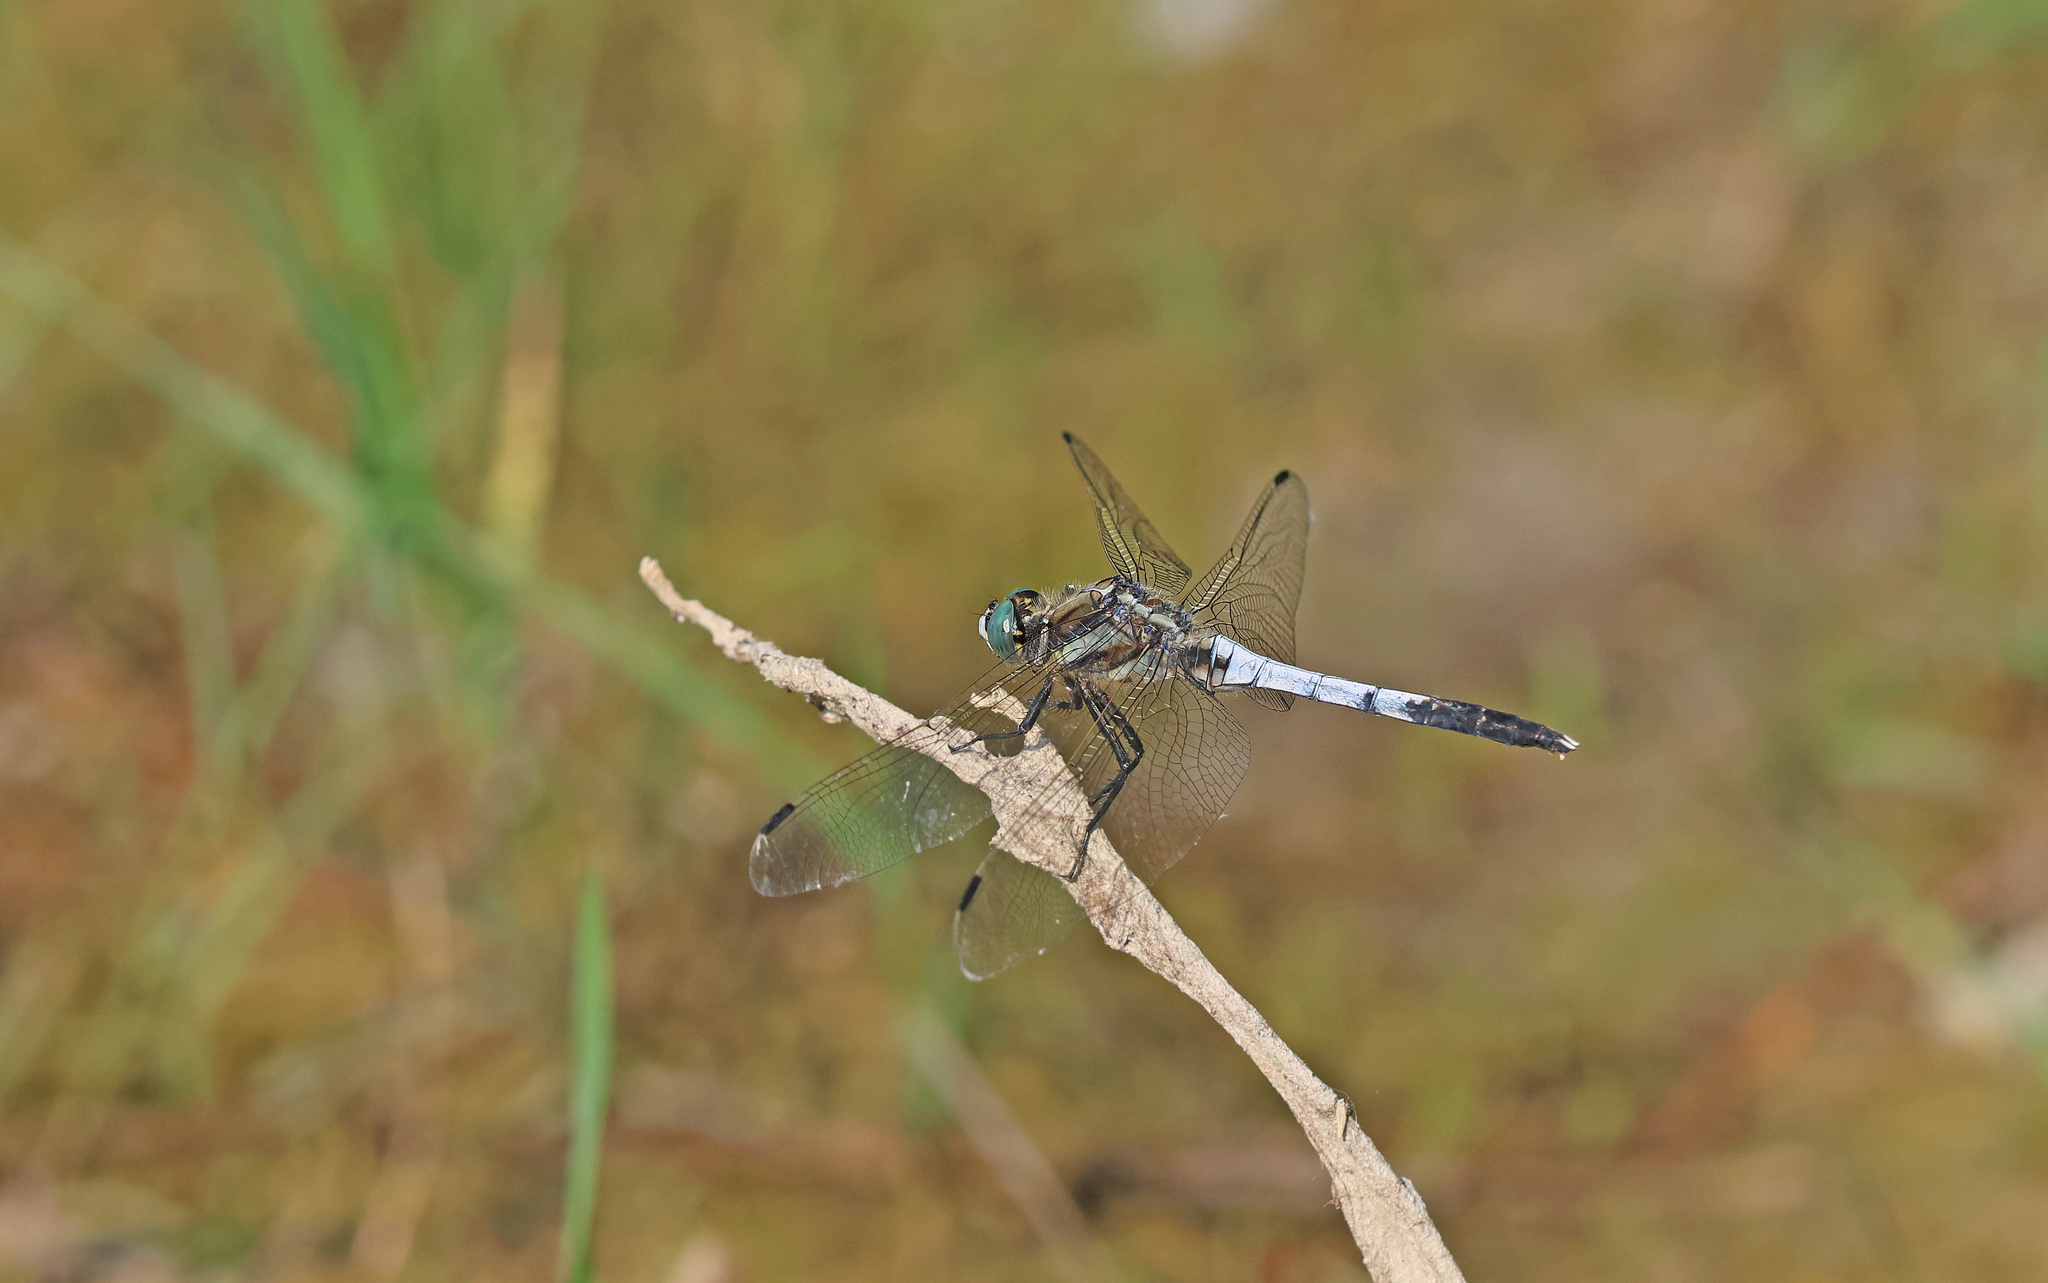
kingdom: Animalia
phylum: Arthropoda
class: Insecta
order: Odonata
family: Libellulidae
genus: Orthetrum
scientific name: Orthetrum albistylum
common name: White-tailed skimmer
